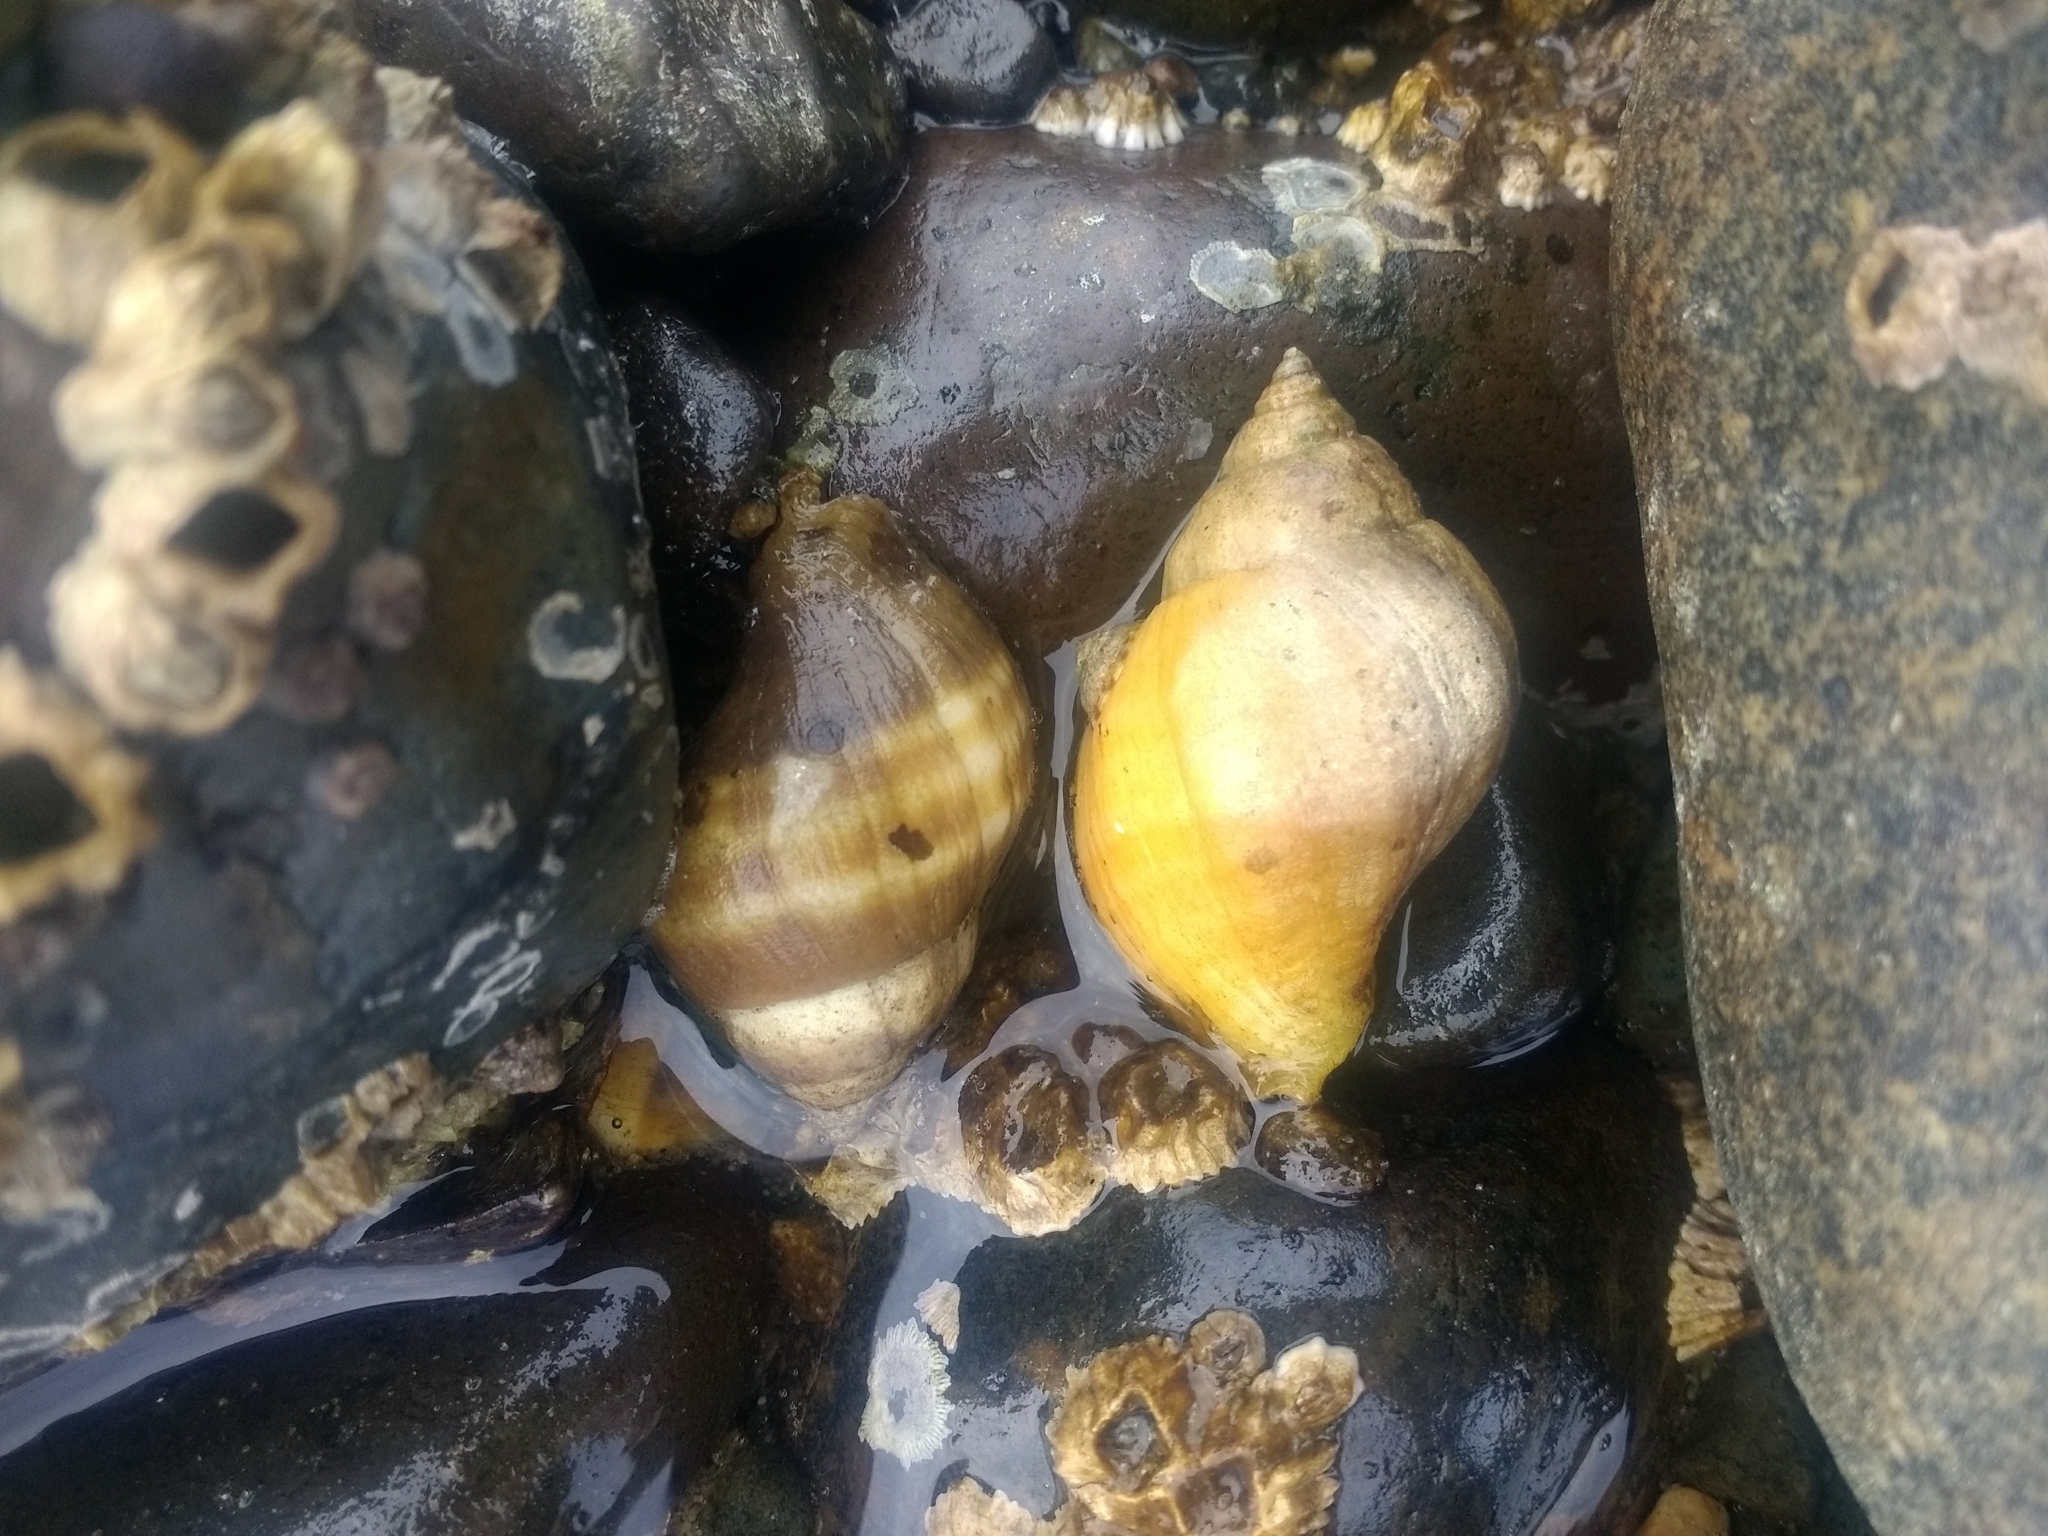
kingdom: Animalia
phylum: Mollusca
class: Gastropoda
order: Neogastropoda
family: Muricidae
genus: Nucella
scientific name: Nucella lamellosa
